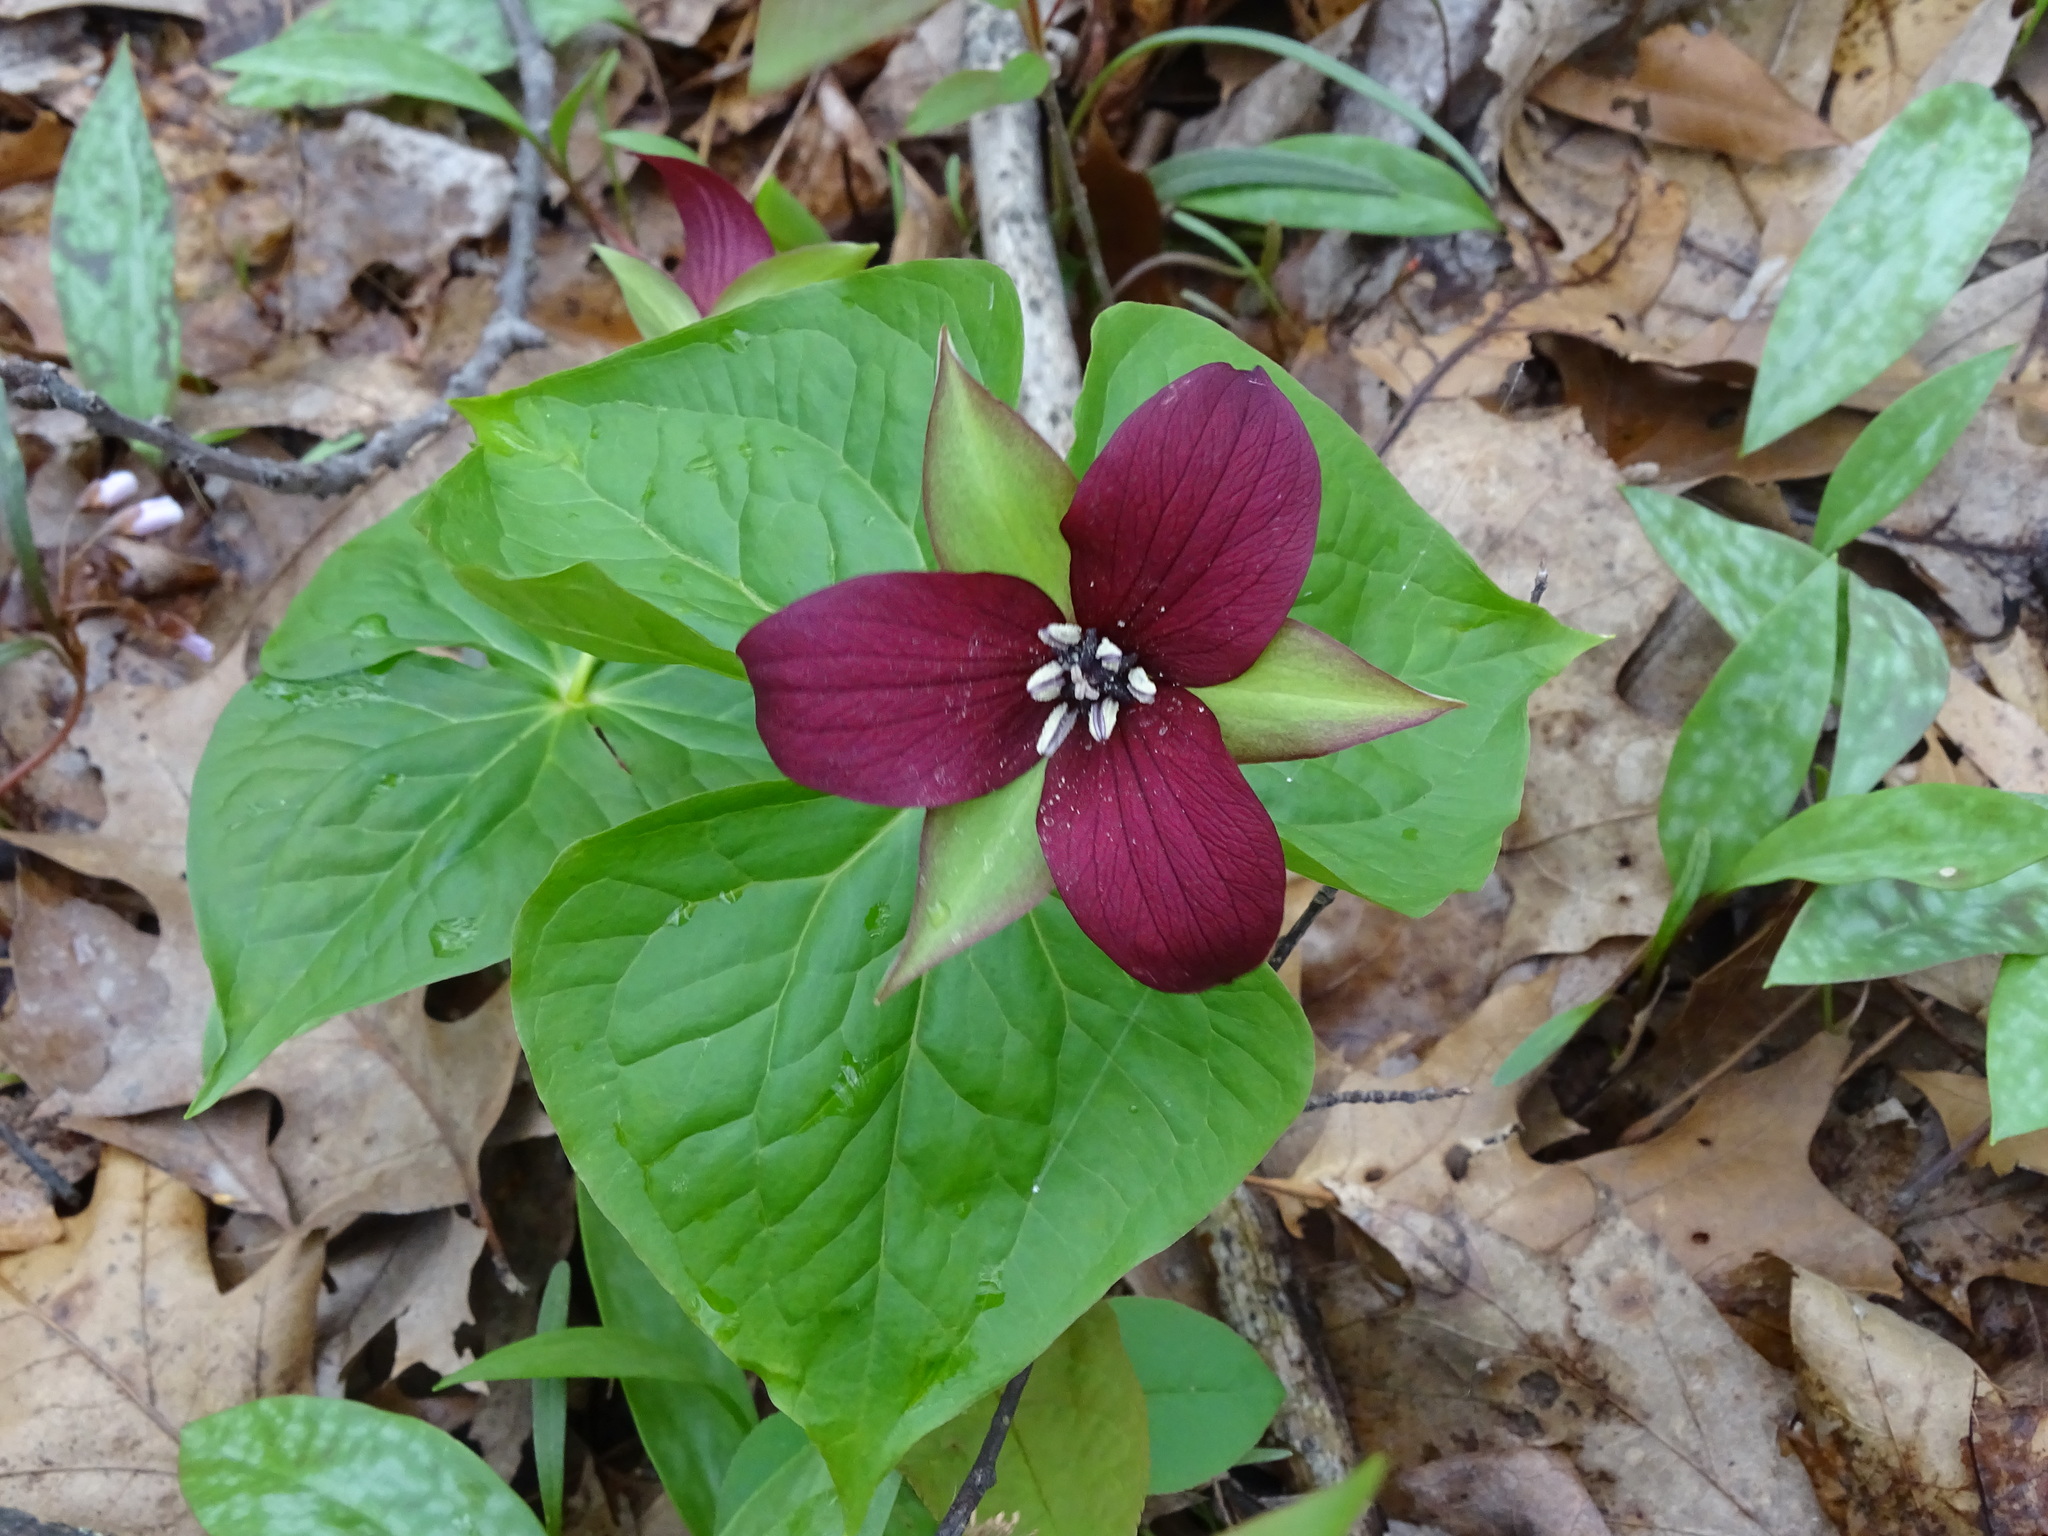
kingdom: Plantae
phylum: Tracheophyta
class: Liliopsida
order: Liliales
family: Melanthiaceae
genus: Trillium
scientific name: Trillium erectum
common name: Purple trillium
